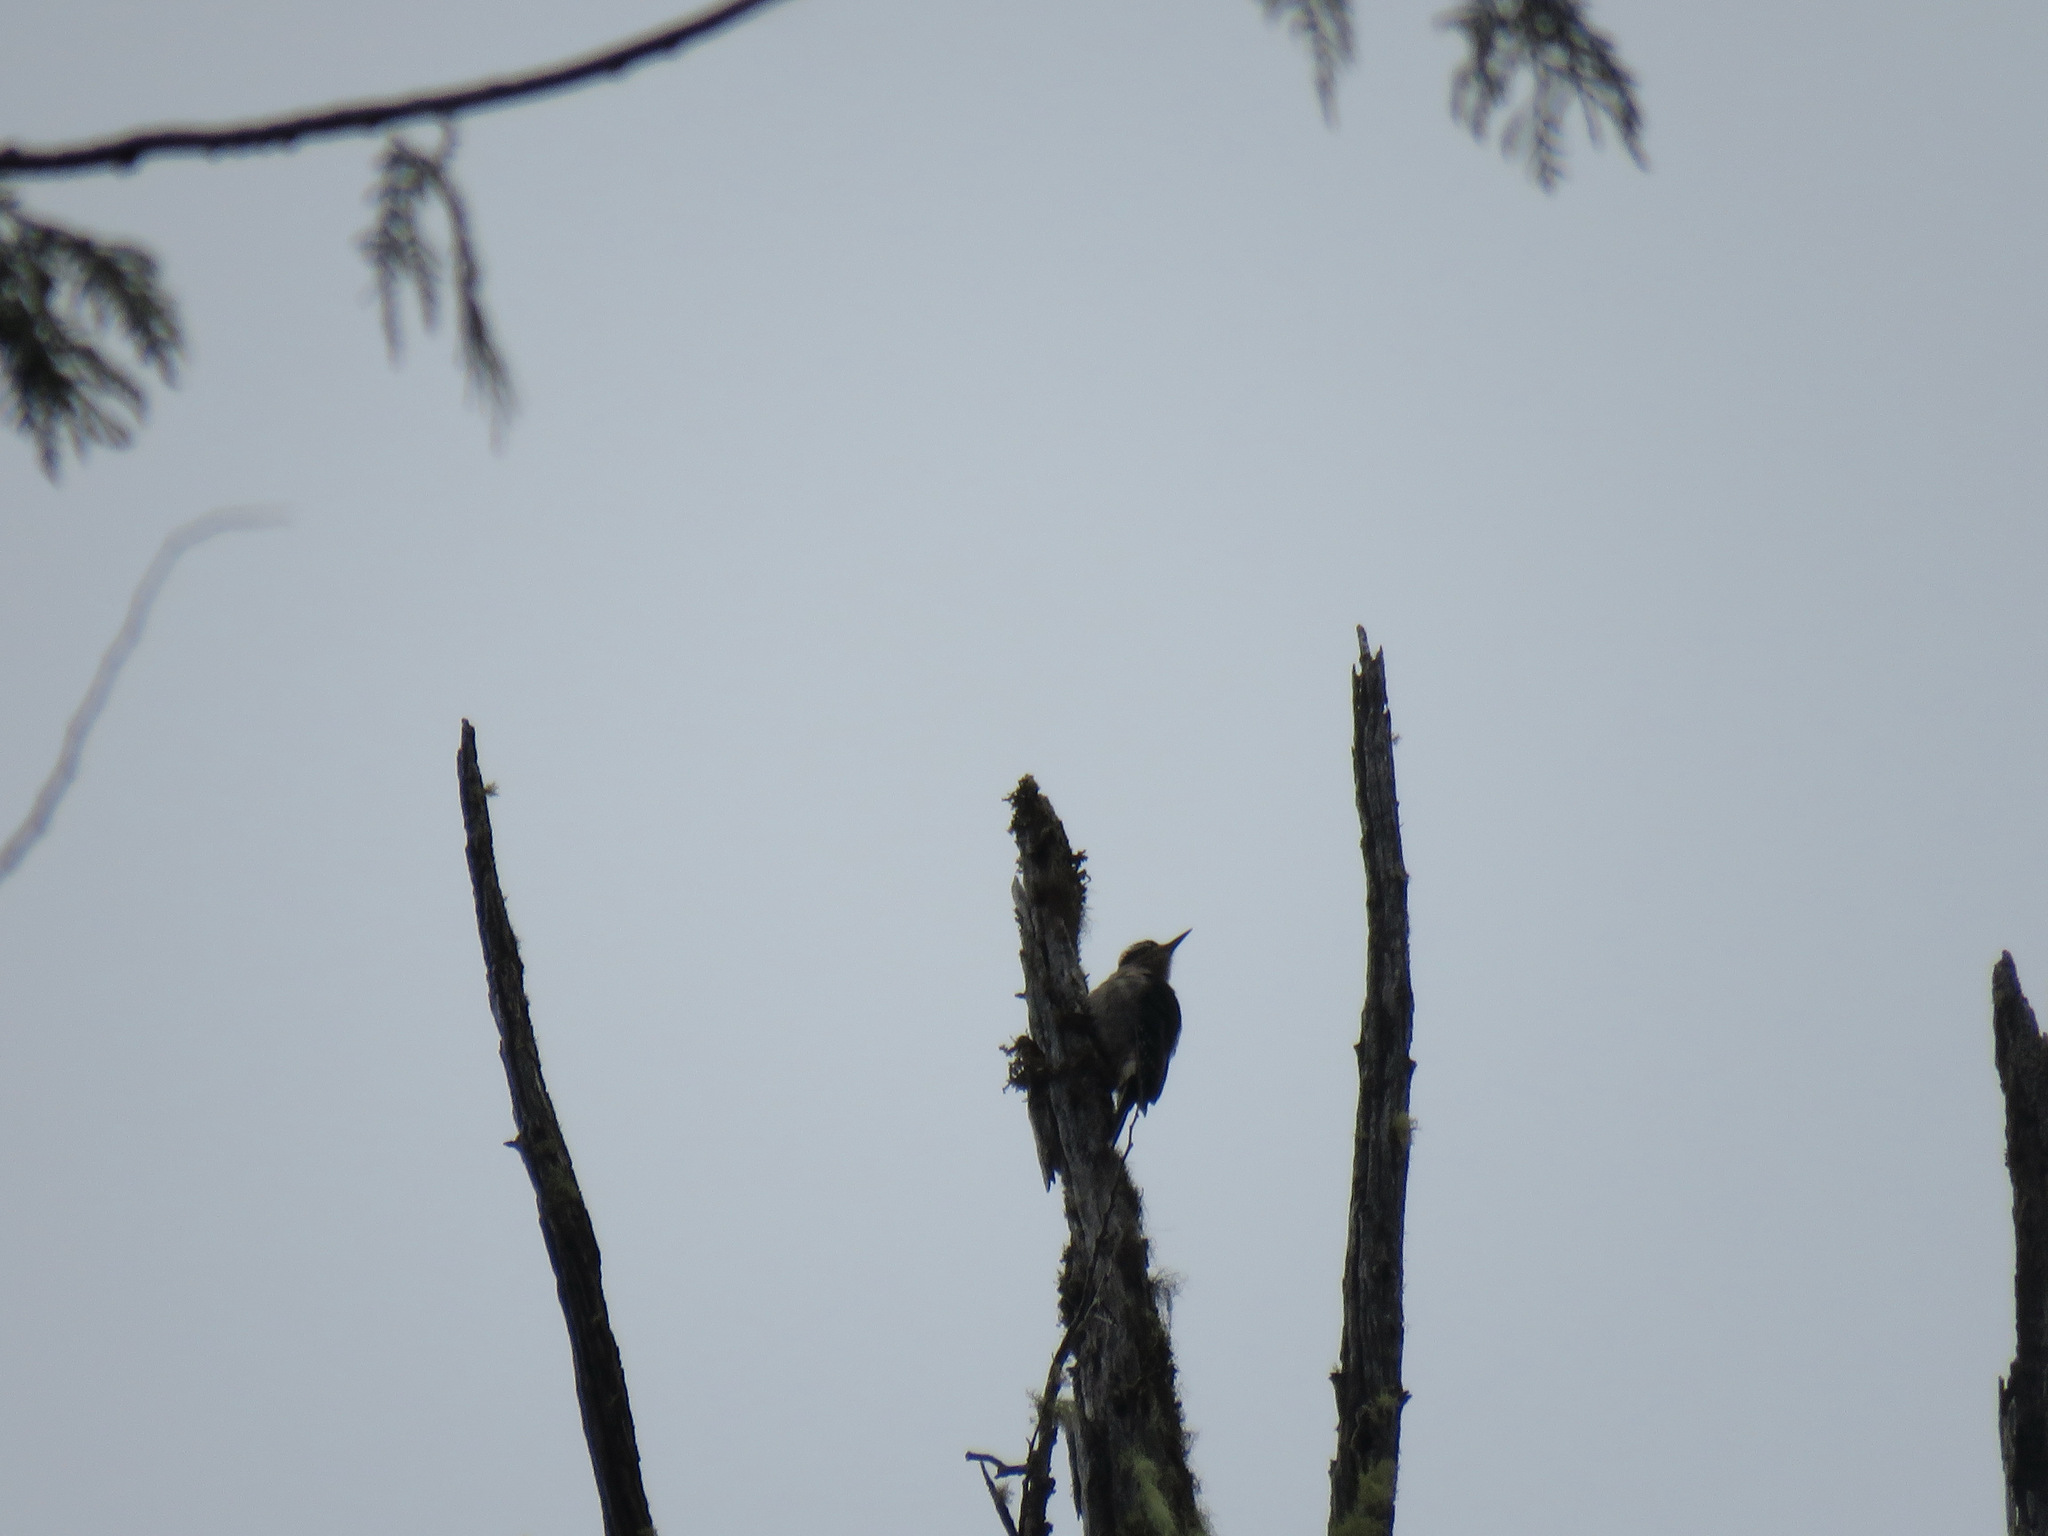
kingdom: Animalia
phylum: Chordata
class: Aves
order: Piciformes
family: Picidae
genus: Leuconotopicus
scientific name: Leuconotopicus villosus
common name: Hairy woodpecker
